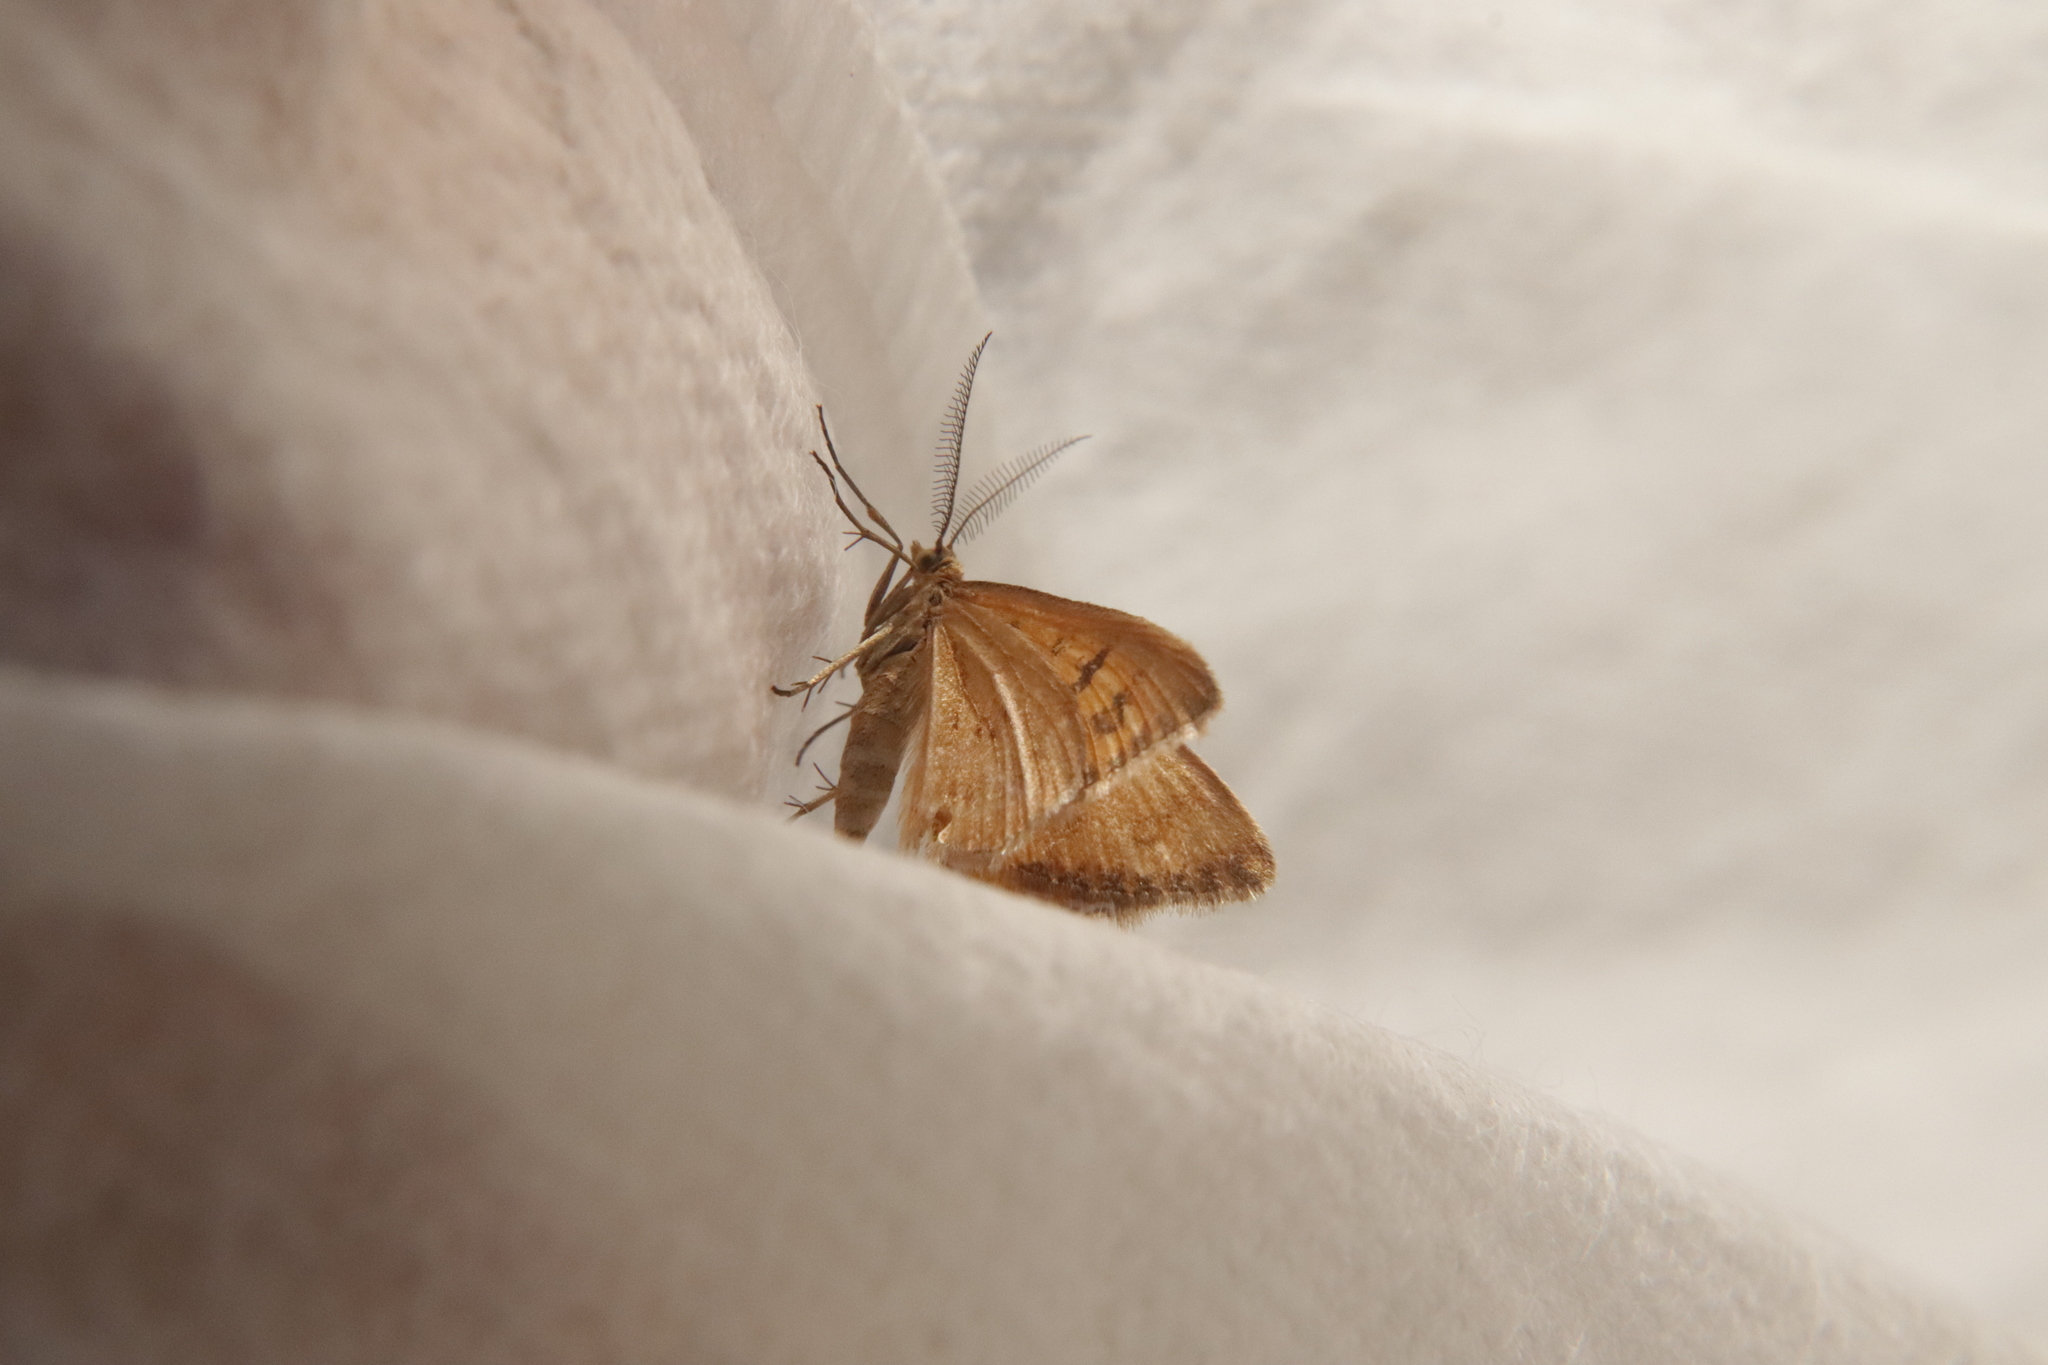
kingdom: Animalia
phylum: Arthropoda
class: Insecta
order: Lepidoptera
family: Geometridae
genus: Asaphodes
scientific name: Asaphodes abrogata
